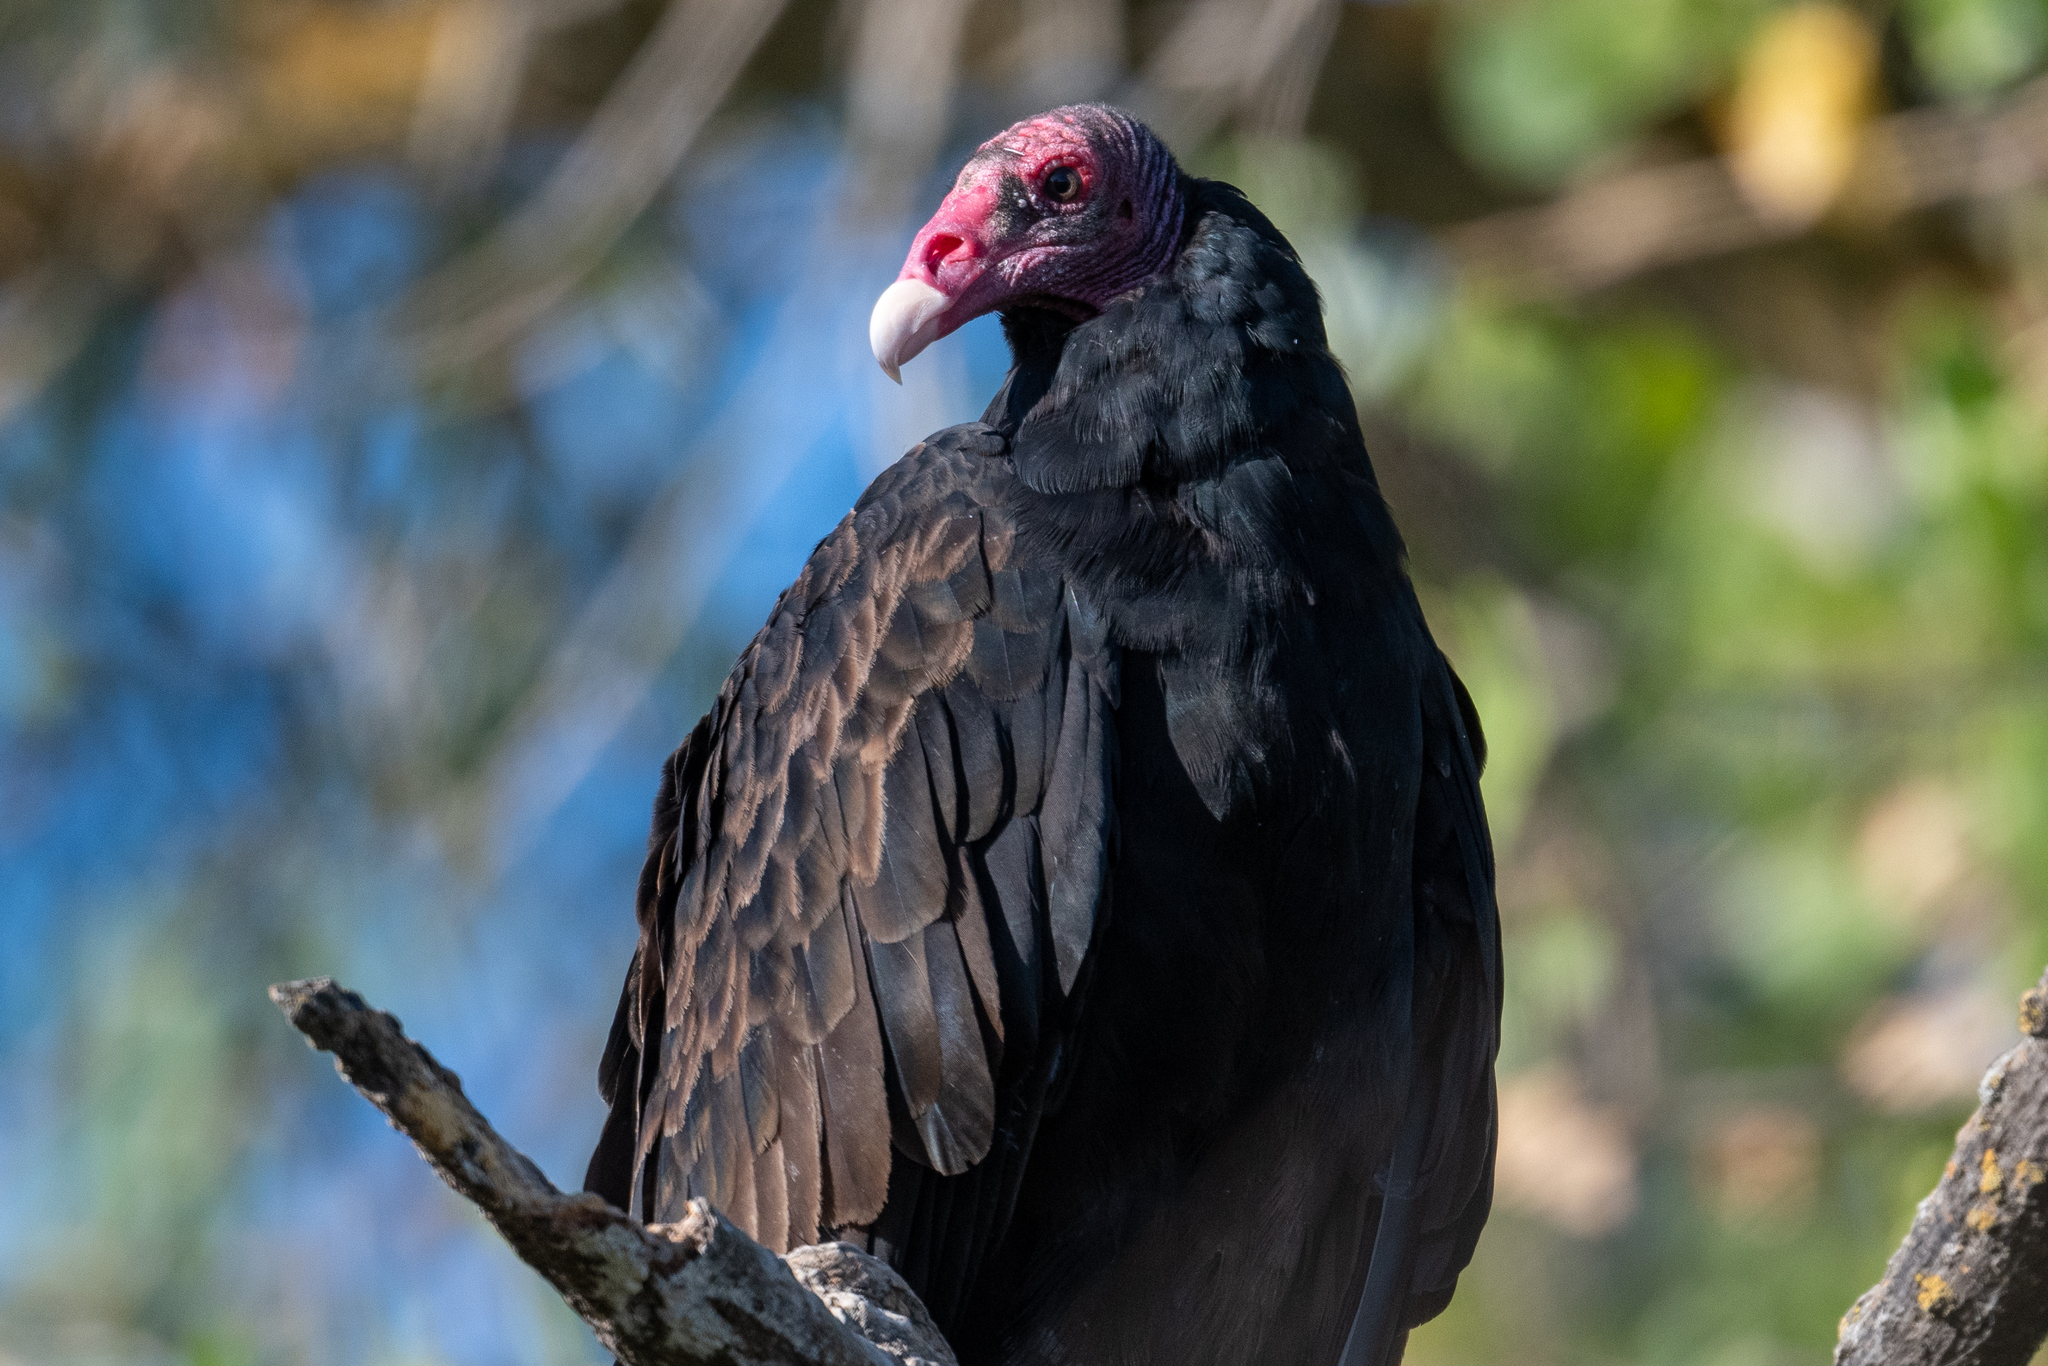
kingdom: Animalia
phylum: Chordata
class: Aves
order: Accipitriformes
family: Cathartidae
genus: Cathartes
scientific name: Cathartes aura
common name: Turkey vulture
